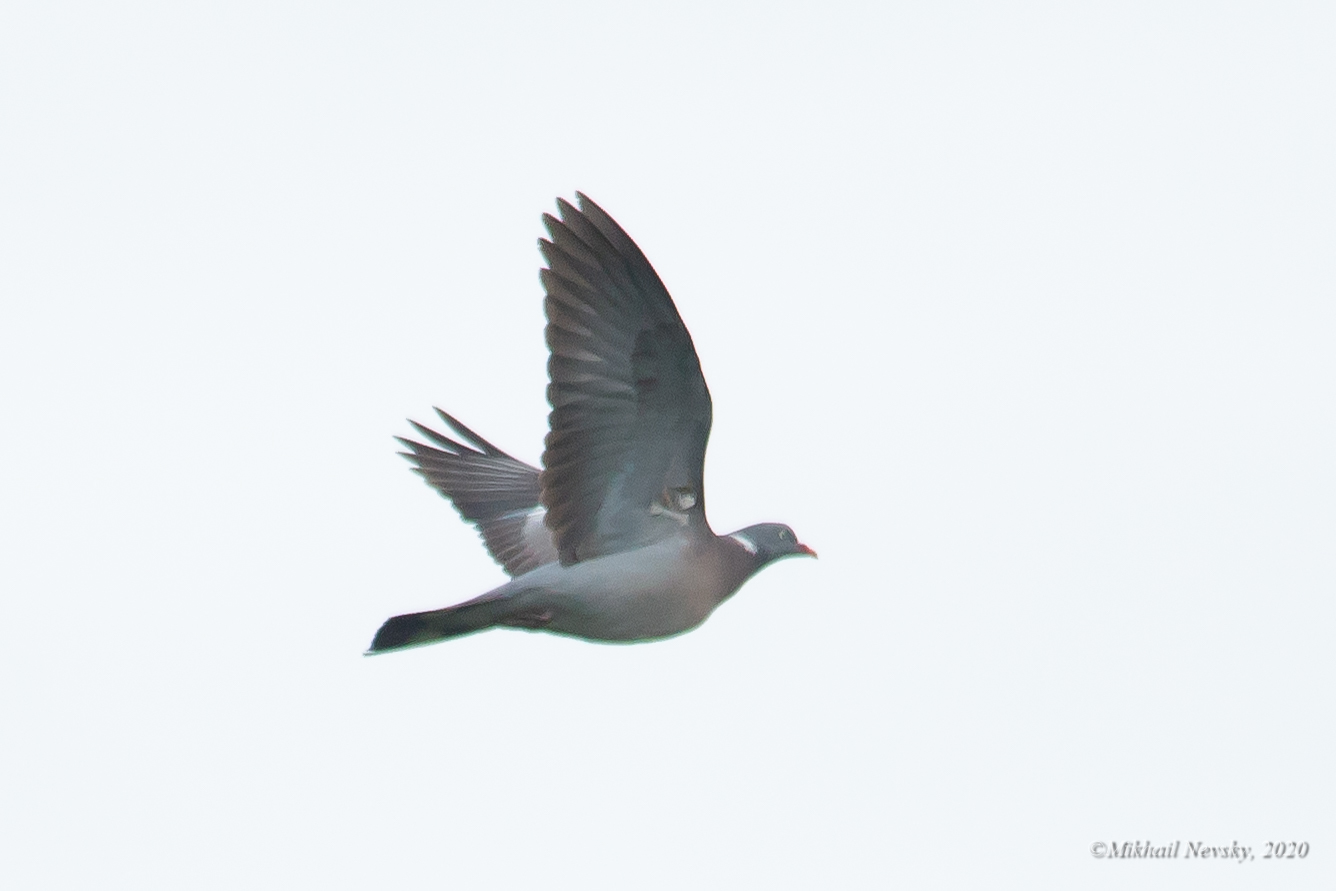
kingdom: Animalia
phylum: Chordata
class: Aves
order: Columbiformes
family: Columbidae
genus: Columba
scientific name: Columba palumbus
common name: Common wood pigeon
